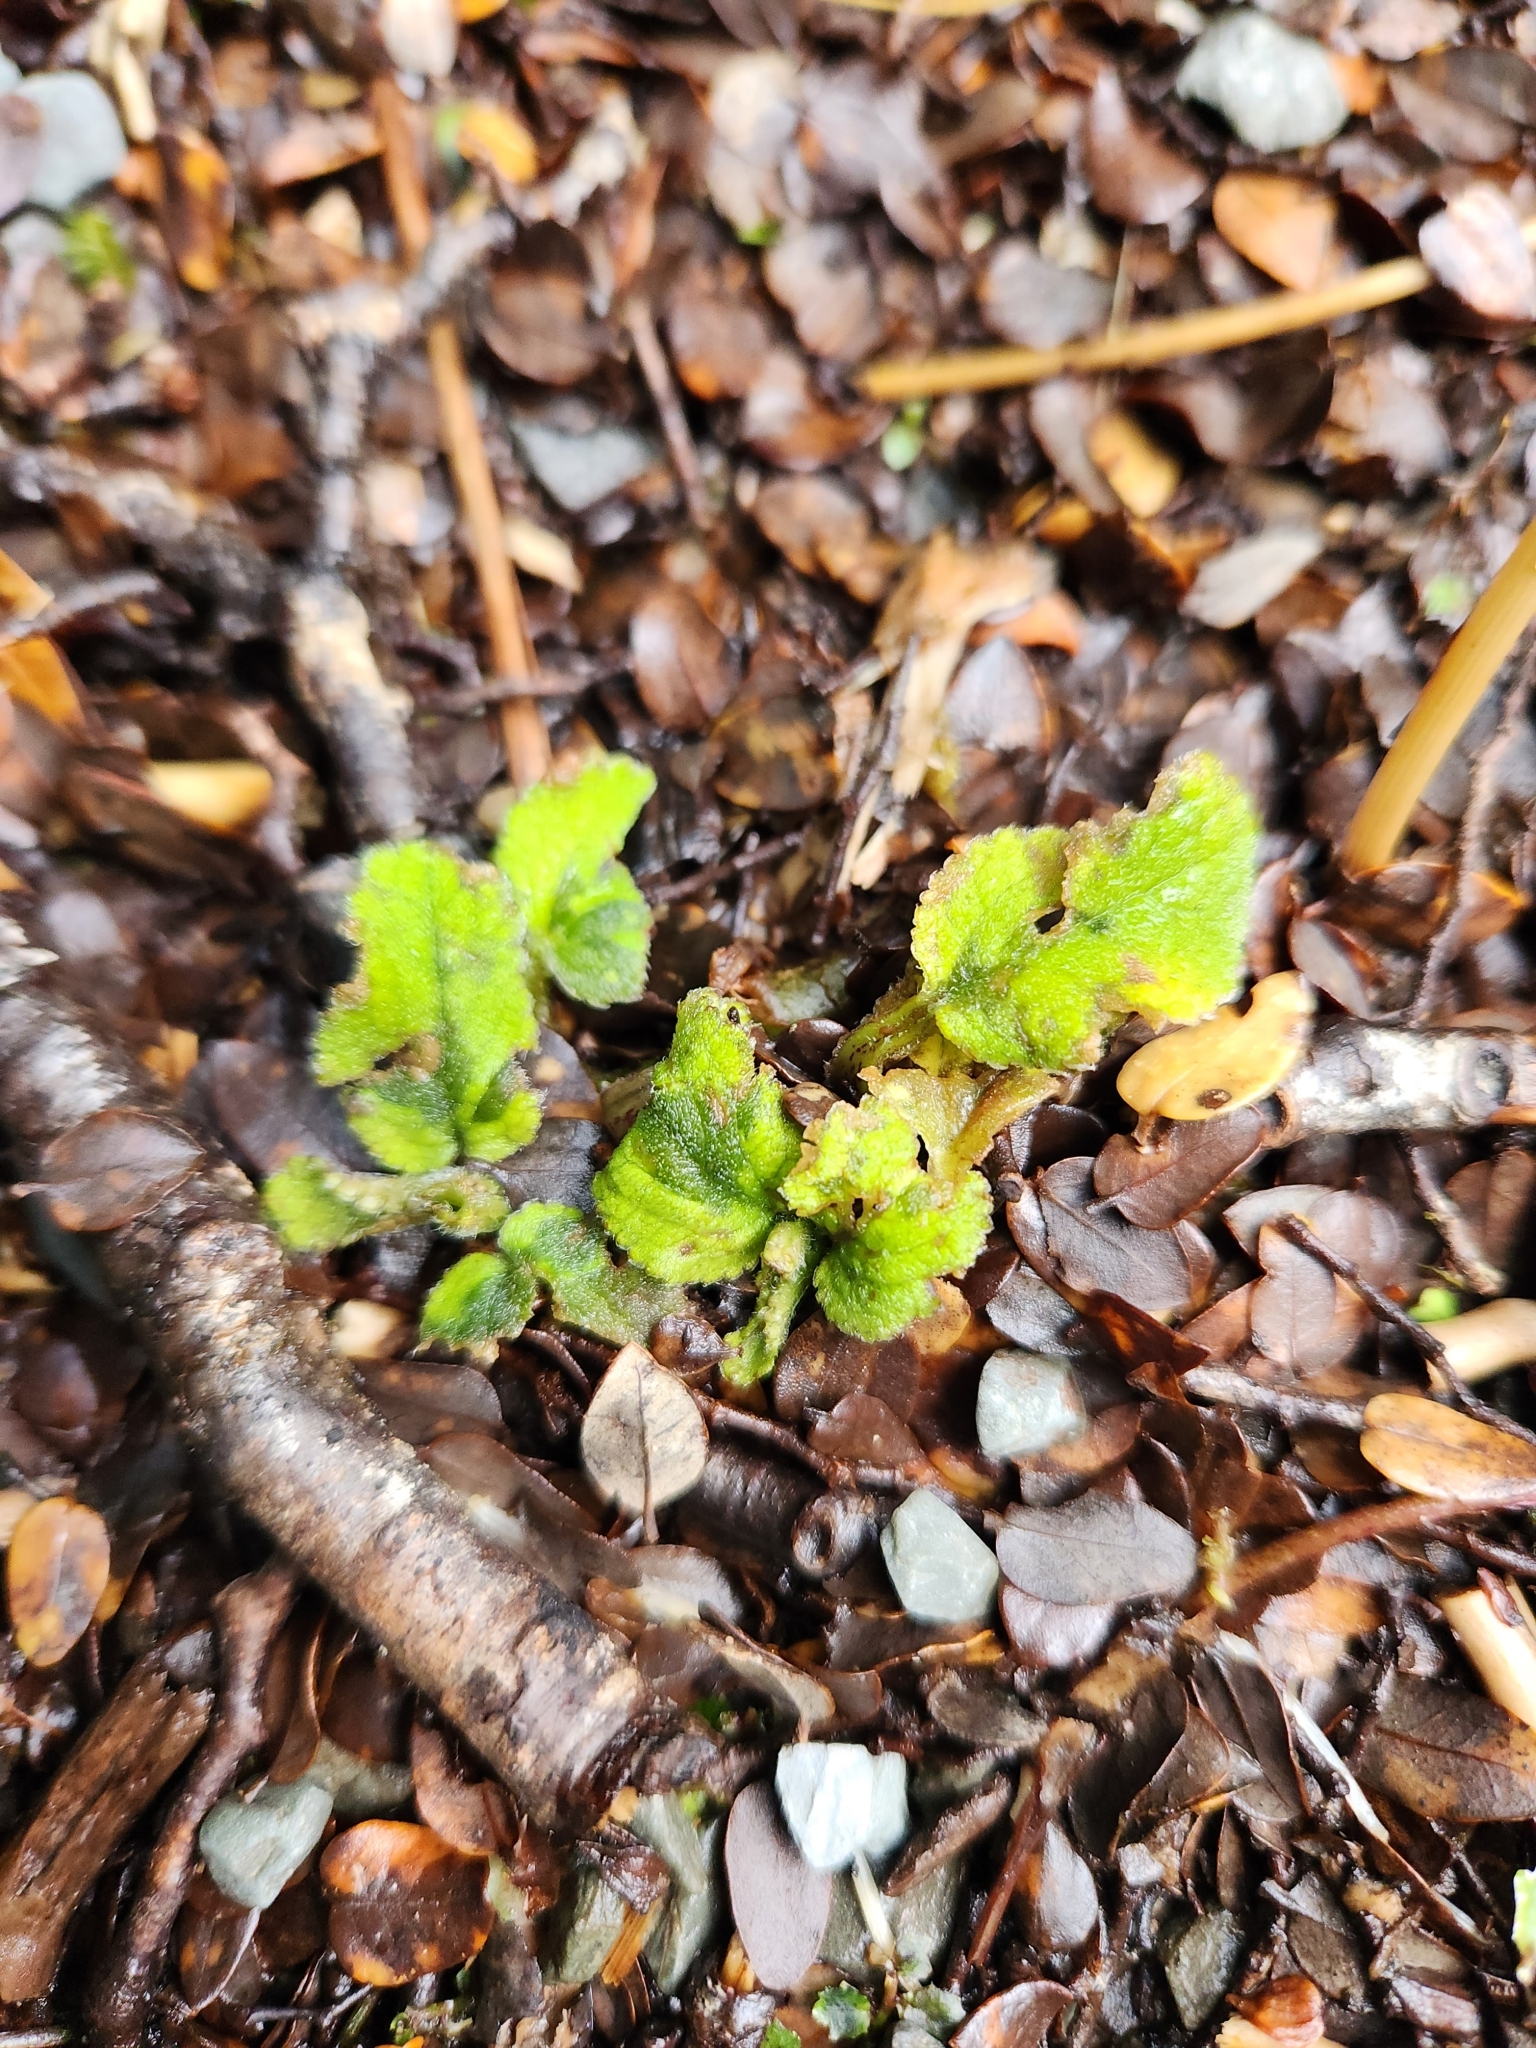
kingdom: Plantae
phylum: Tracheophyta
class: Magnoliopsida
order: Lamiales
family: Plantaginaceae
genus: Ourisia
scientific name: Ourisia macrophylla
